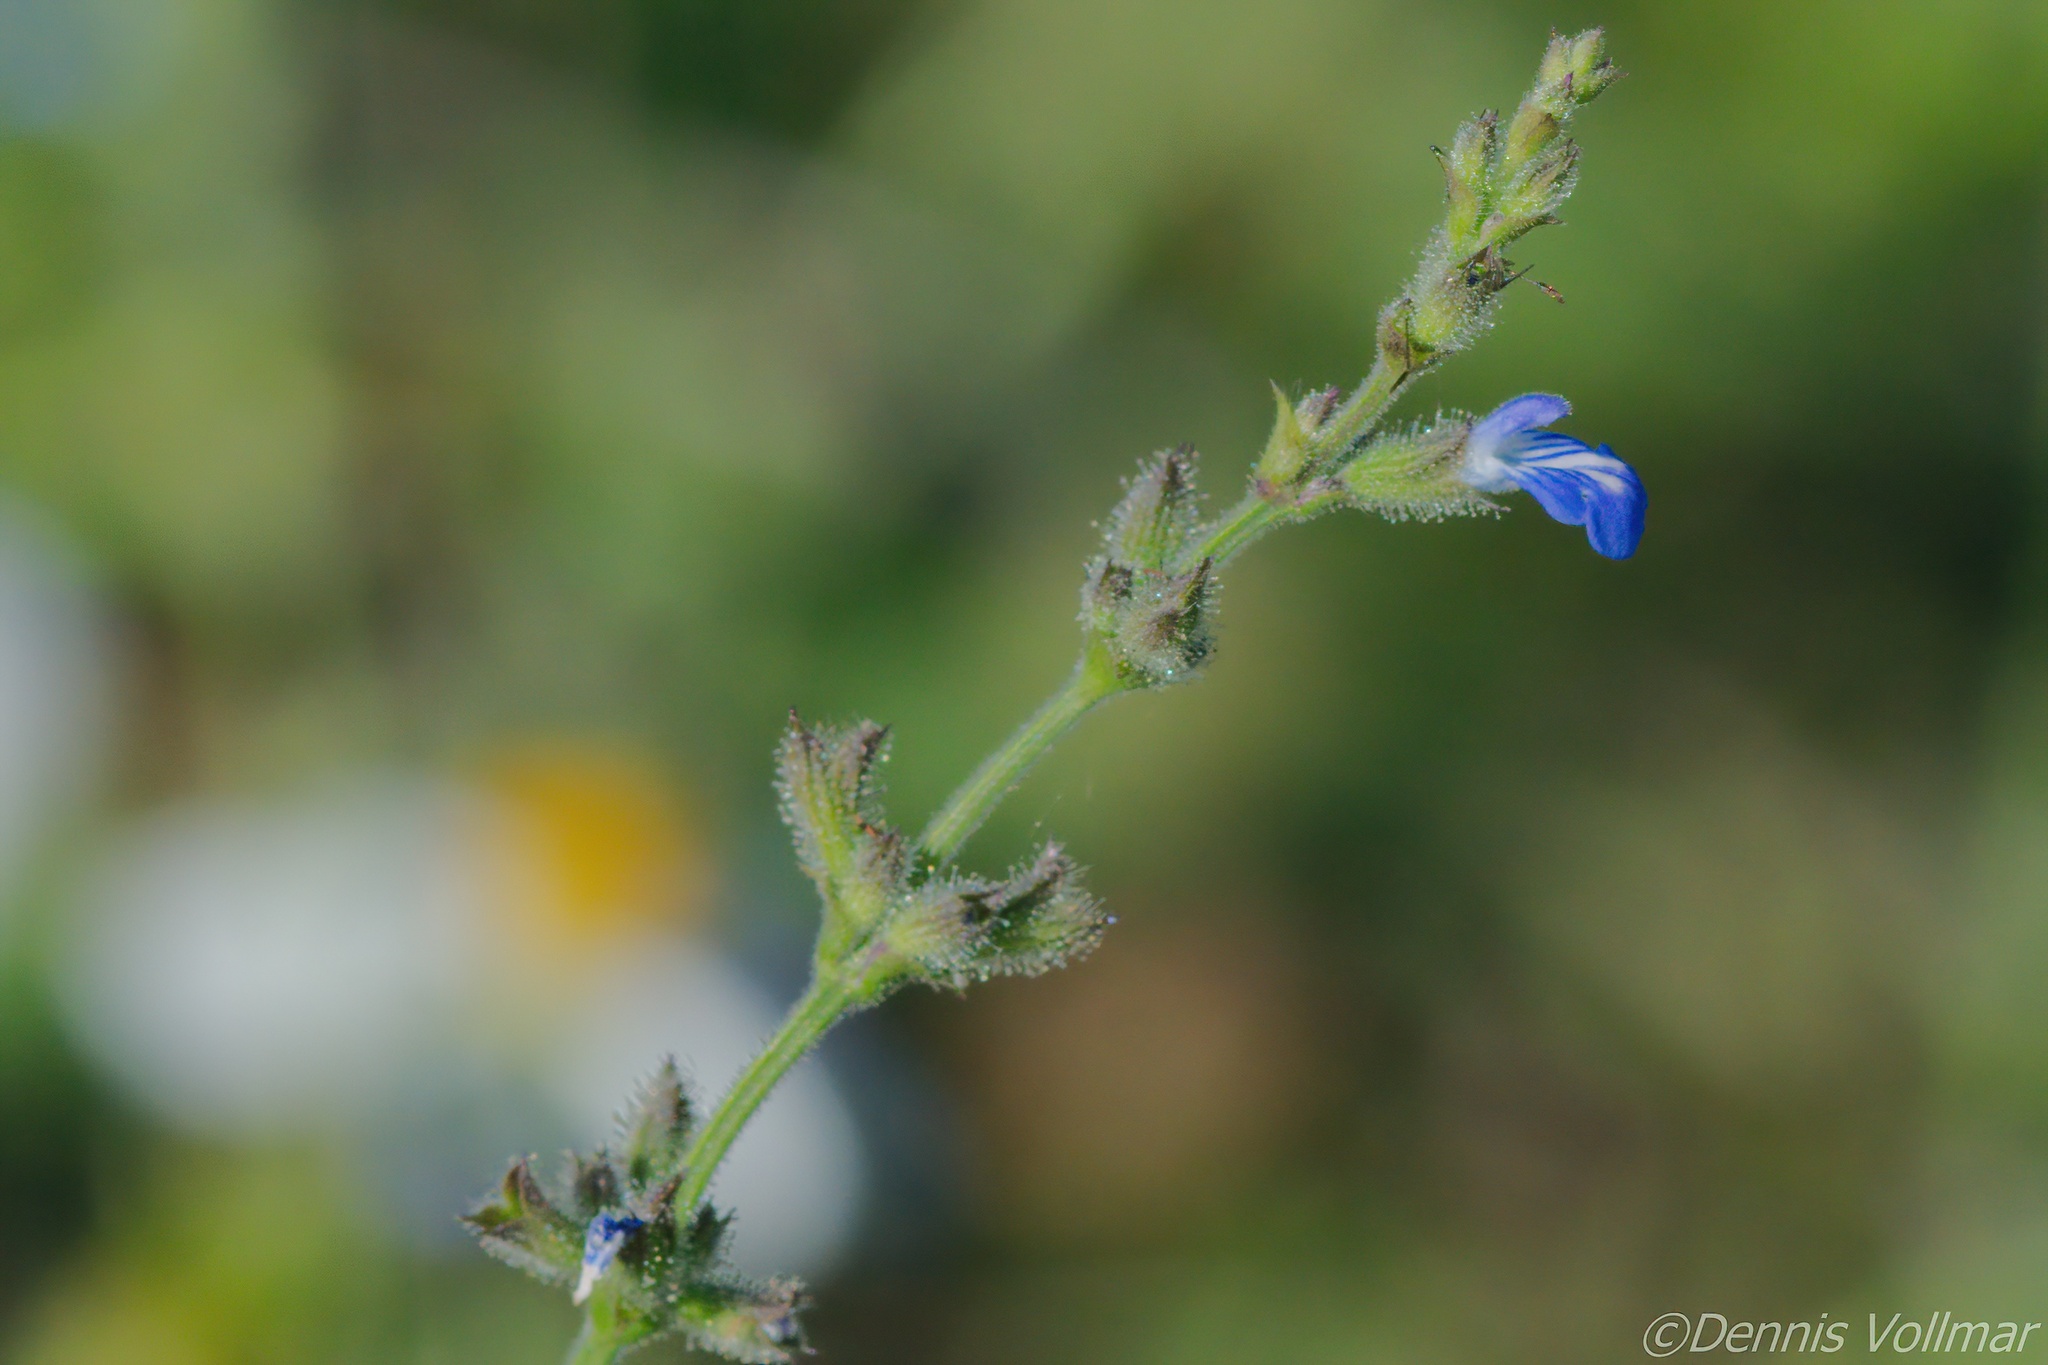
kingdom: Plantae
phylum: Tracheophyta
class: Magnoliopsida
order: Lamiales
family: Lamiaceae
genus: Salvia
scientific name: Salvia misella
